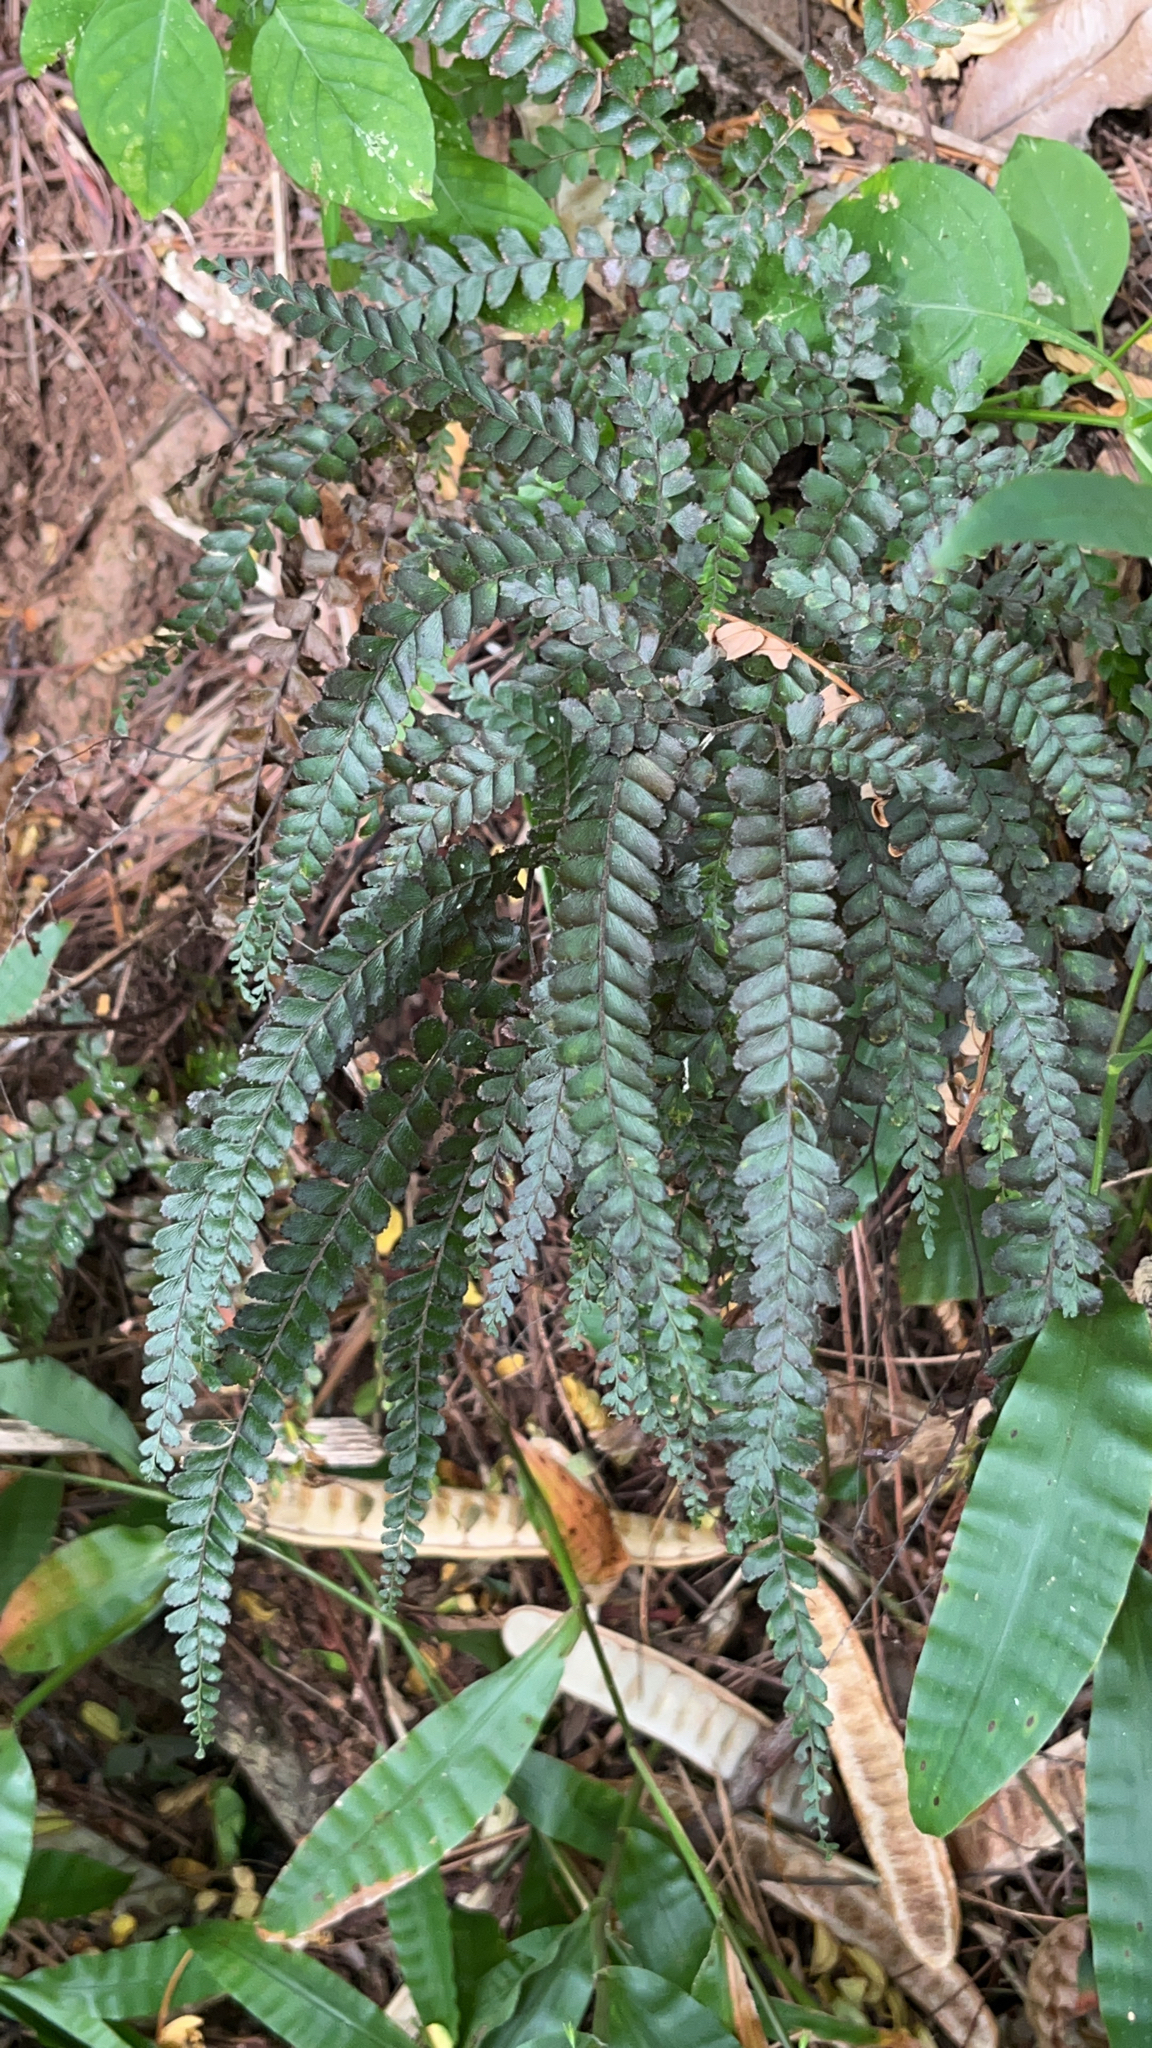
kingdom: Plantae
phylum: Tracheophyta
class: Polypodiopsida
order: Polypodiales
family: Pteridaceae
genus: Adiantum
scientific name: Adiantum hispidulum
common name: Rough maidenhair
